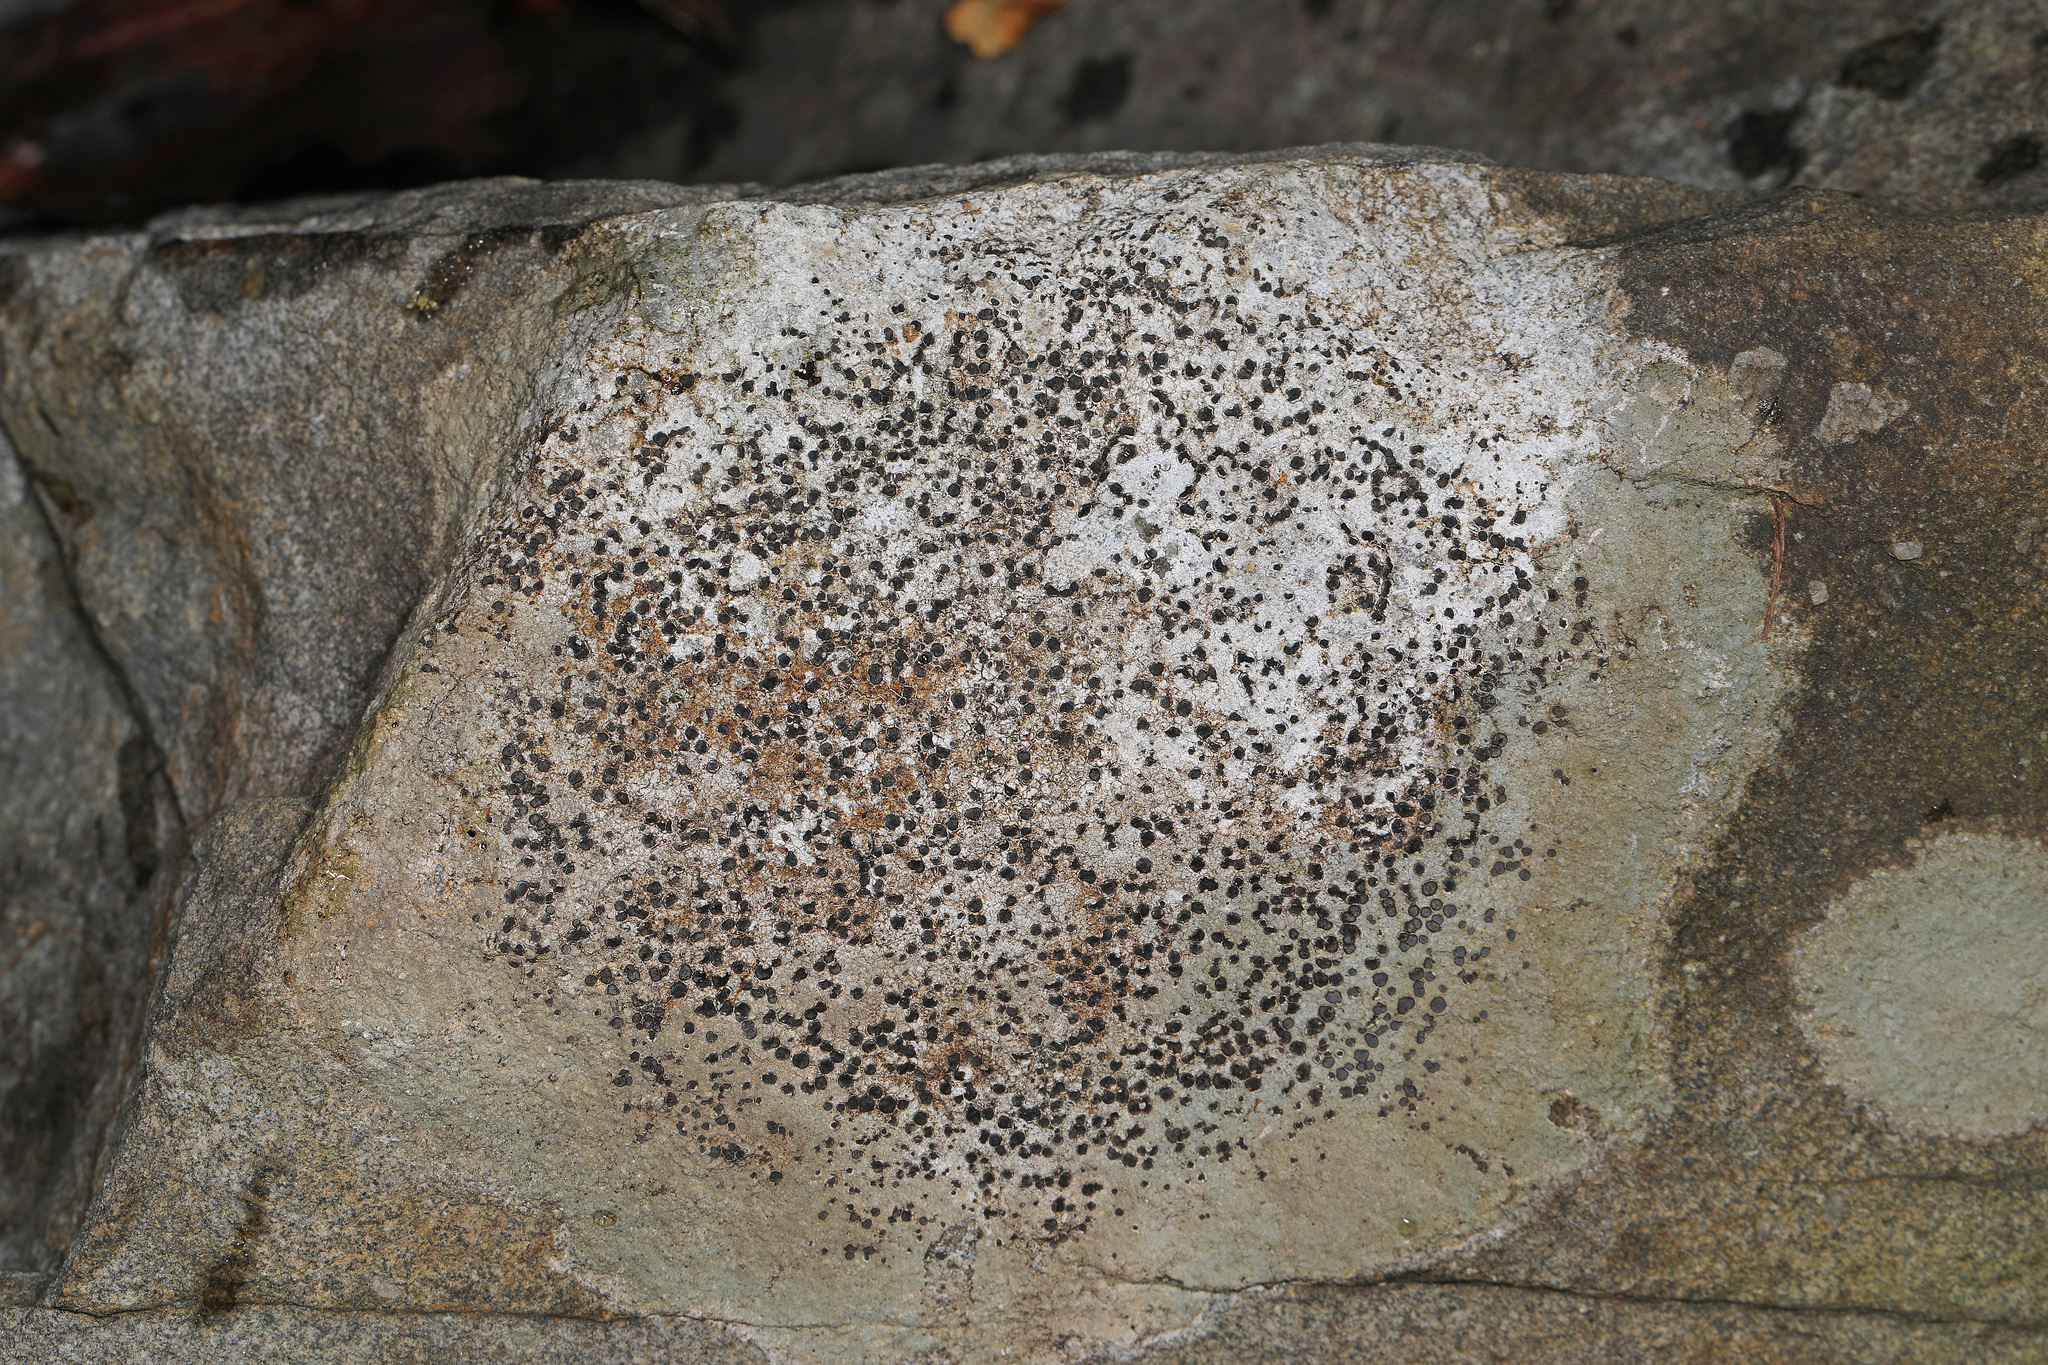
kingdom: Fungi
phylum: Ascomycota
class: Lecanoromycetes
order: Lecideales
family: Lecideaceae
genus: Porpidia
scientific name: Porpidia albocaerulescens
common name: Smokey-eyed boulder lichen
